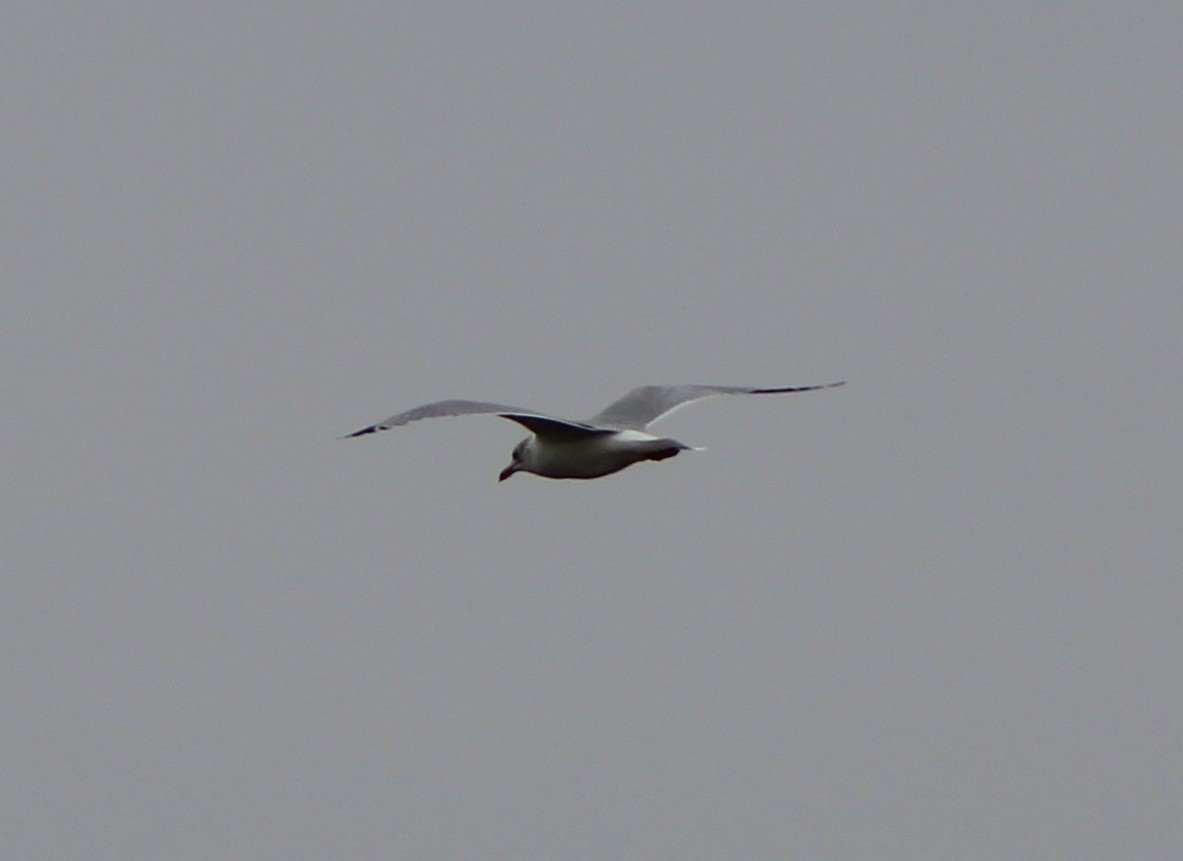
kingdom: Animalia
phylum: Chordata
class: Aves
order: Charadriiformes
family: Laridae
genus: Larus
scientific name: Larus delawarensis
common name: Ring-billed gull
